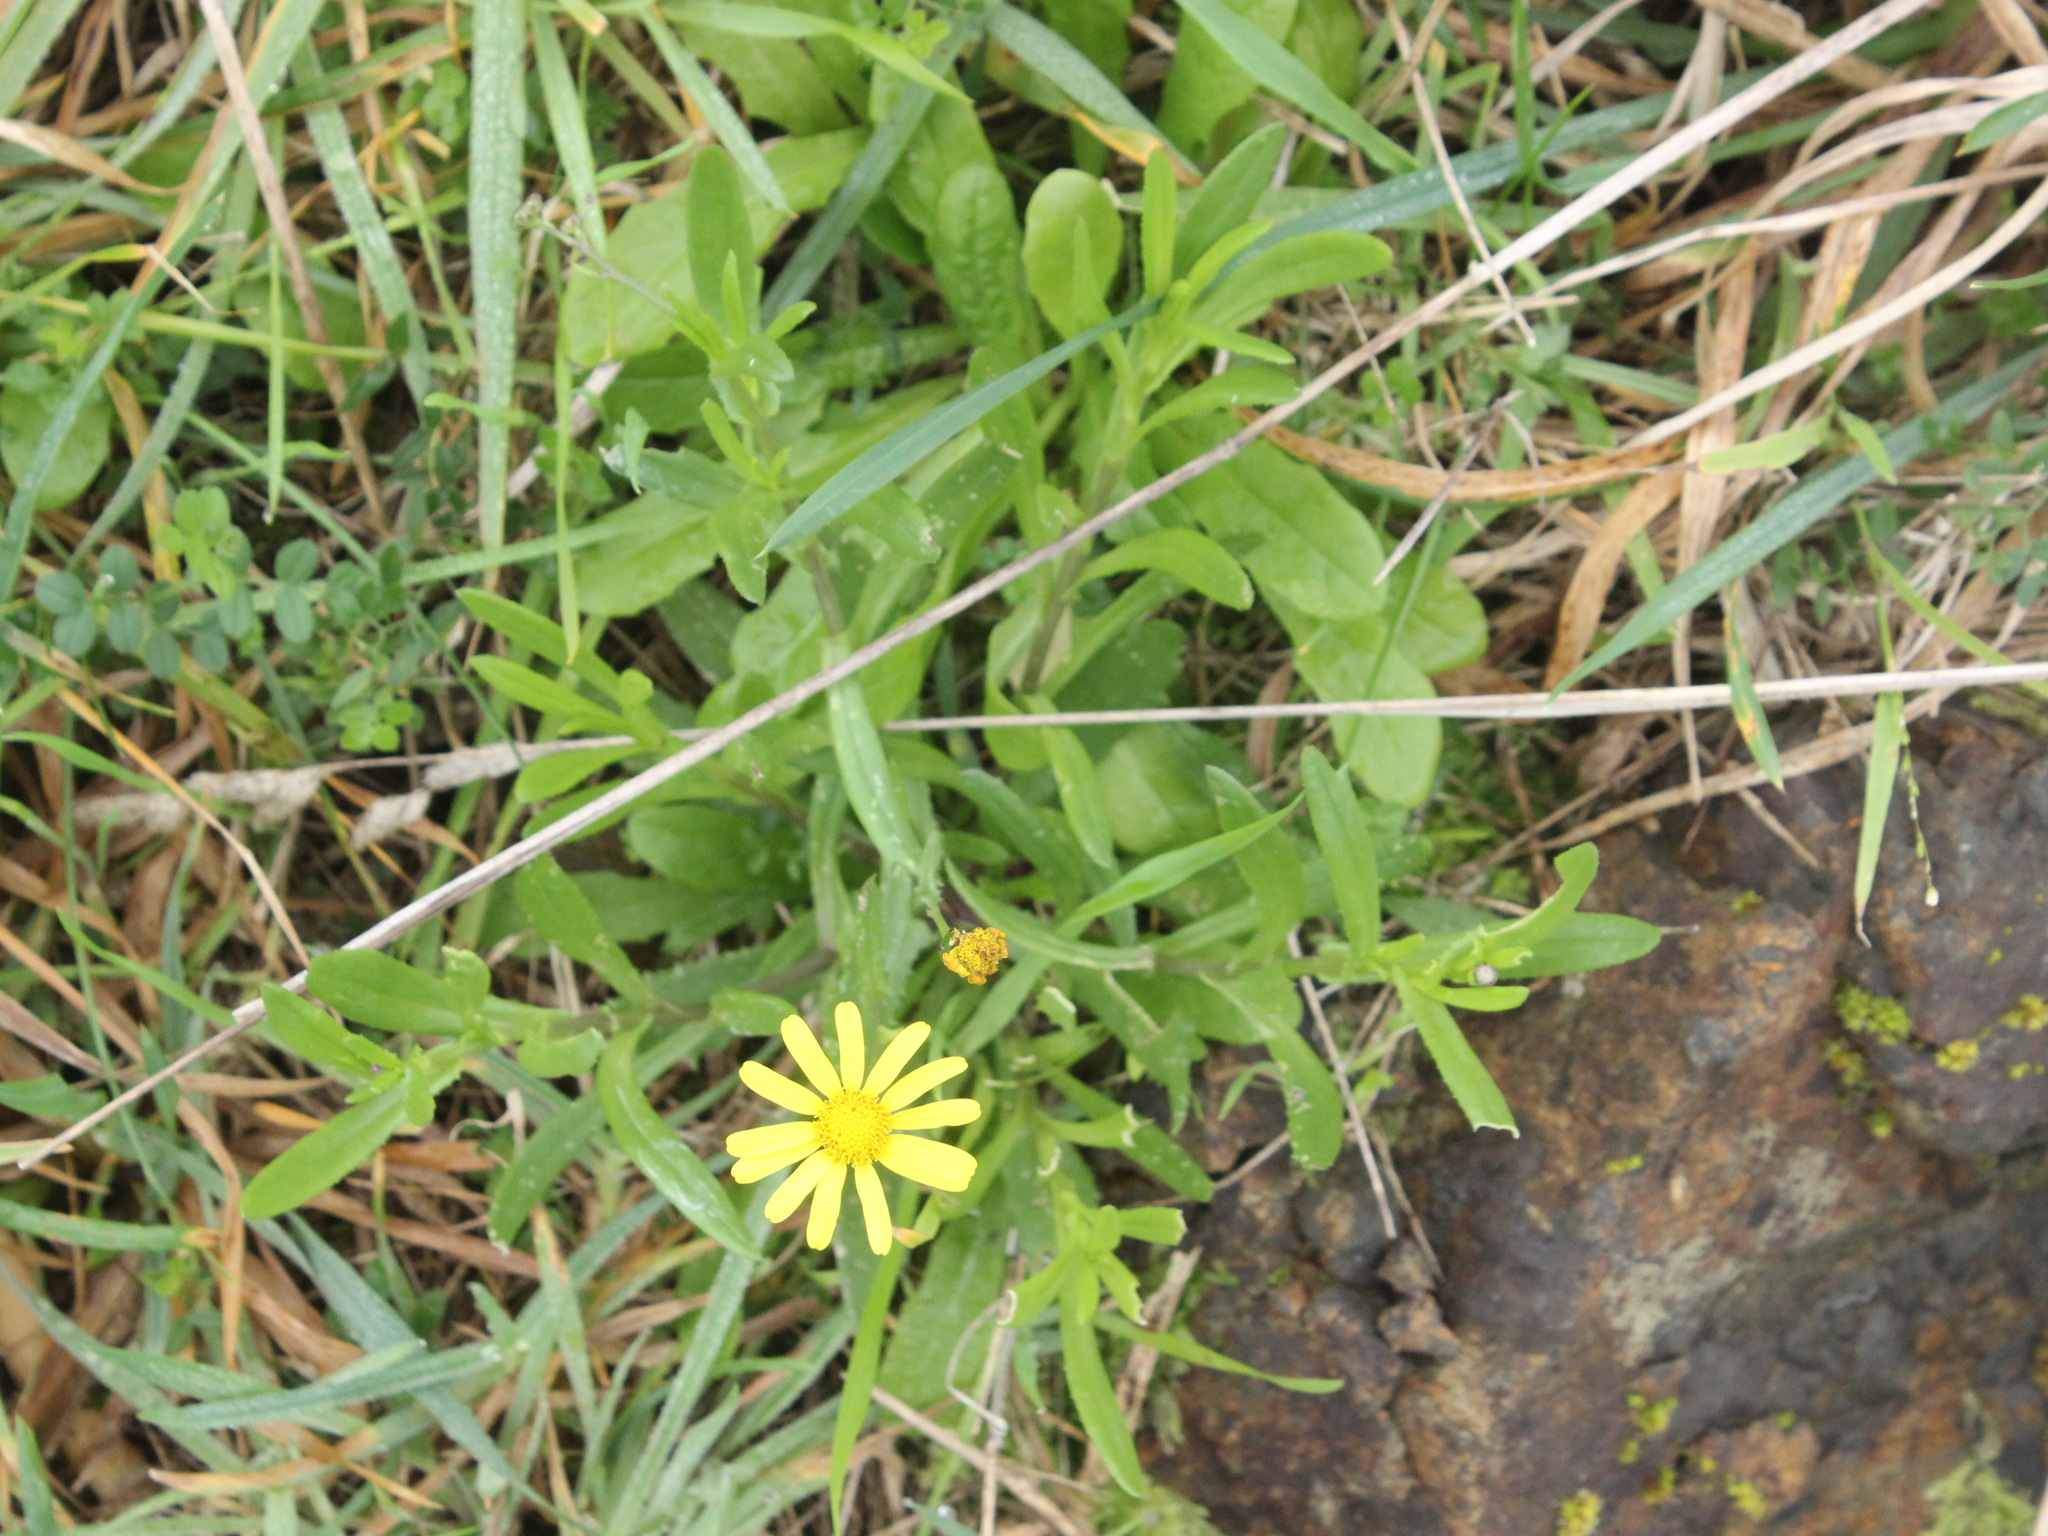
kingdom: Plantae
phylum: Tracheophyta
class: Magnoliopsida
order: Asterales
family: Asteraceae
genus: Senecio
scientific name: Senecio skirrhodon
